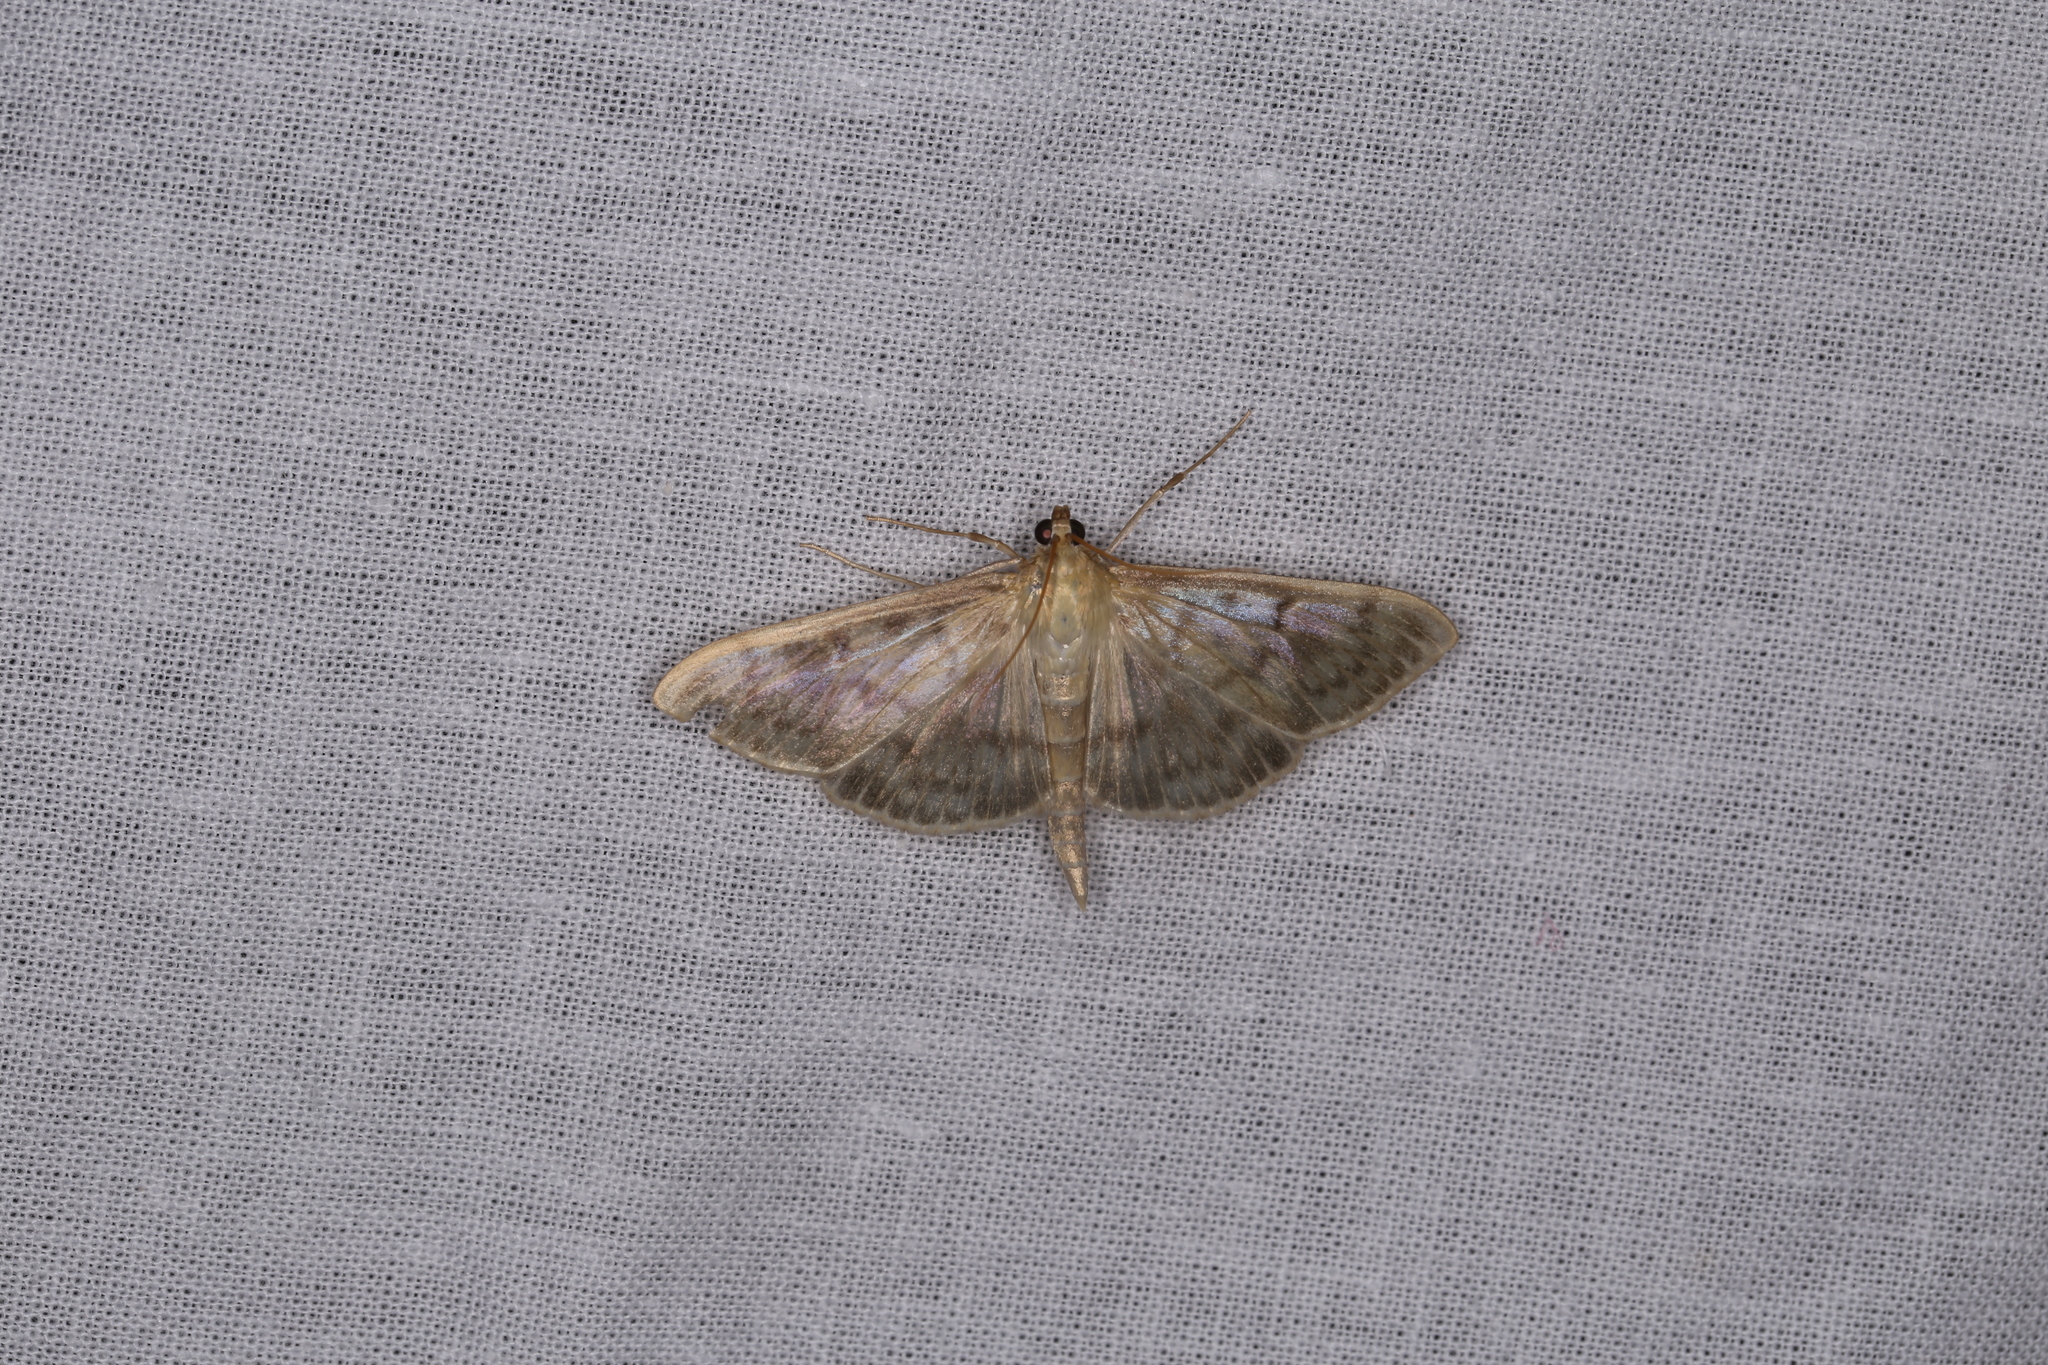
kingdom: Animalia
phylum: Arthropoda
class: Insecta
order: Lepidoptera
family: Crambidae
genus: Patania
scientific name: Patania ruralis
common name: Mother of pearl
